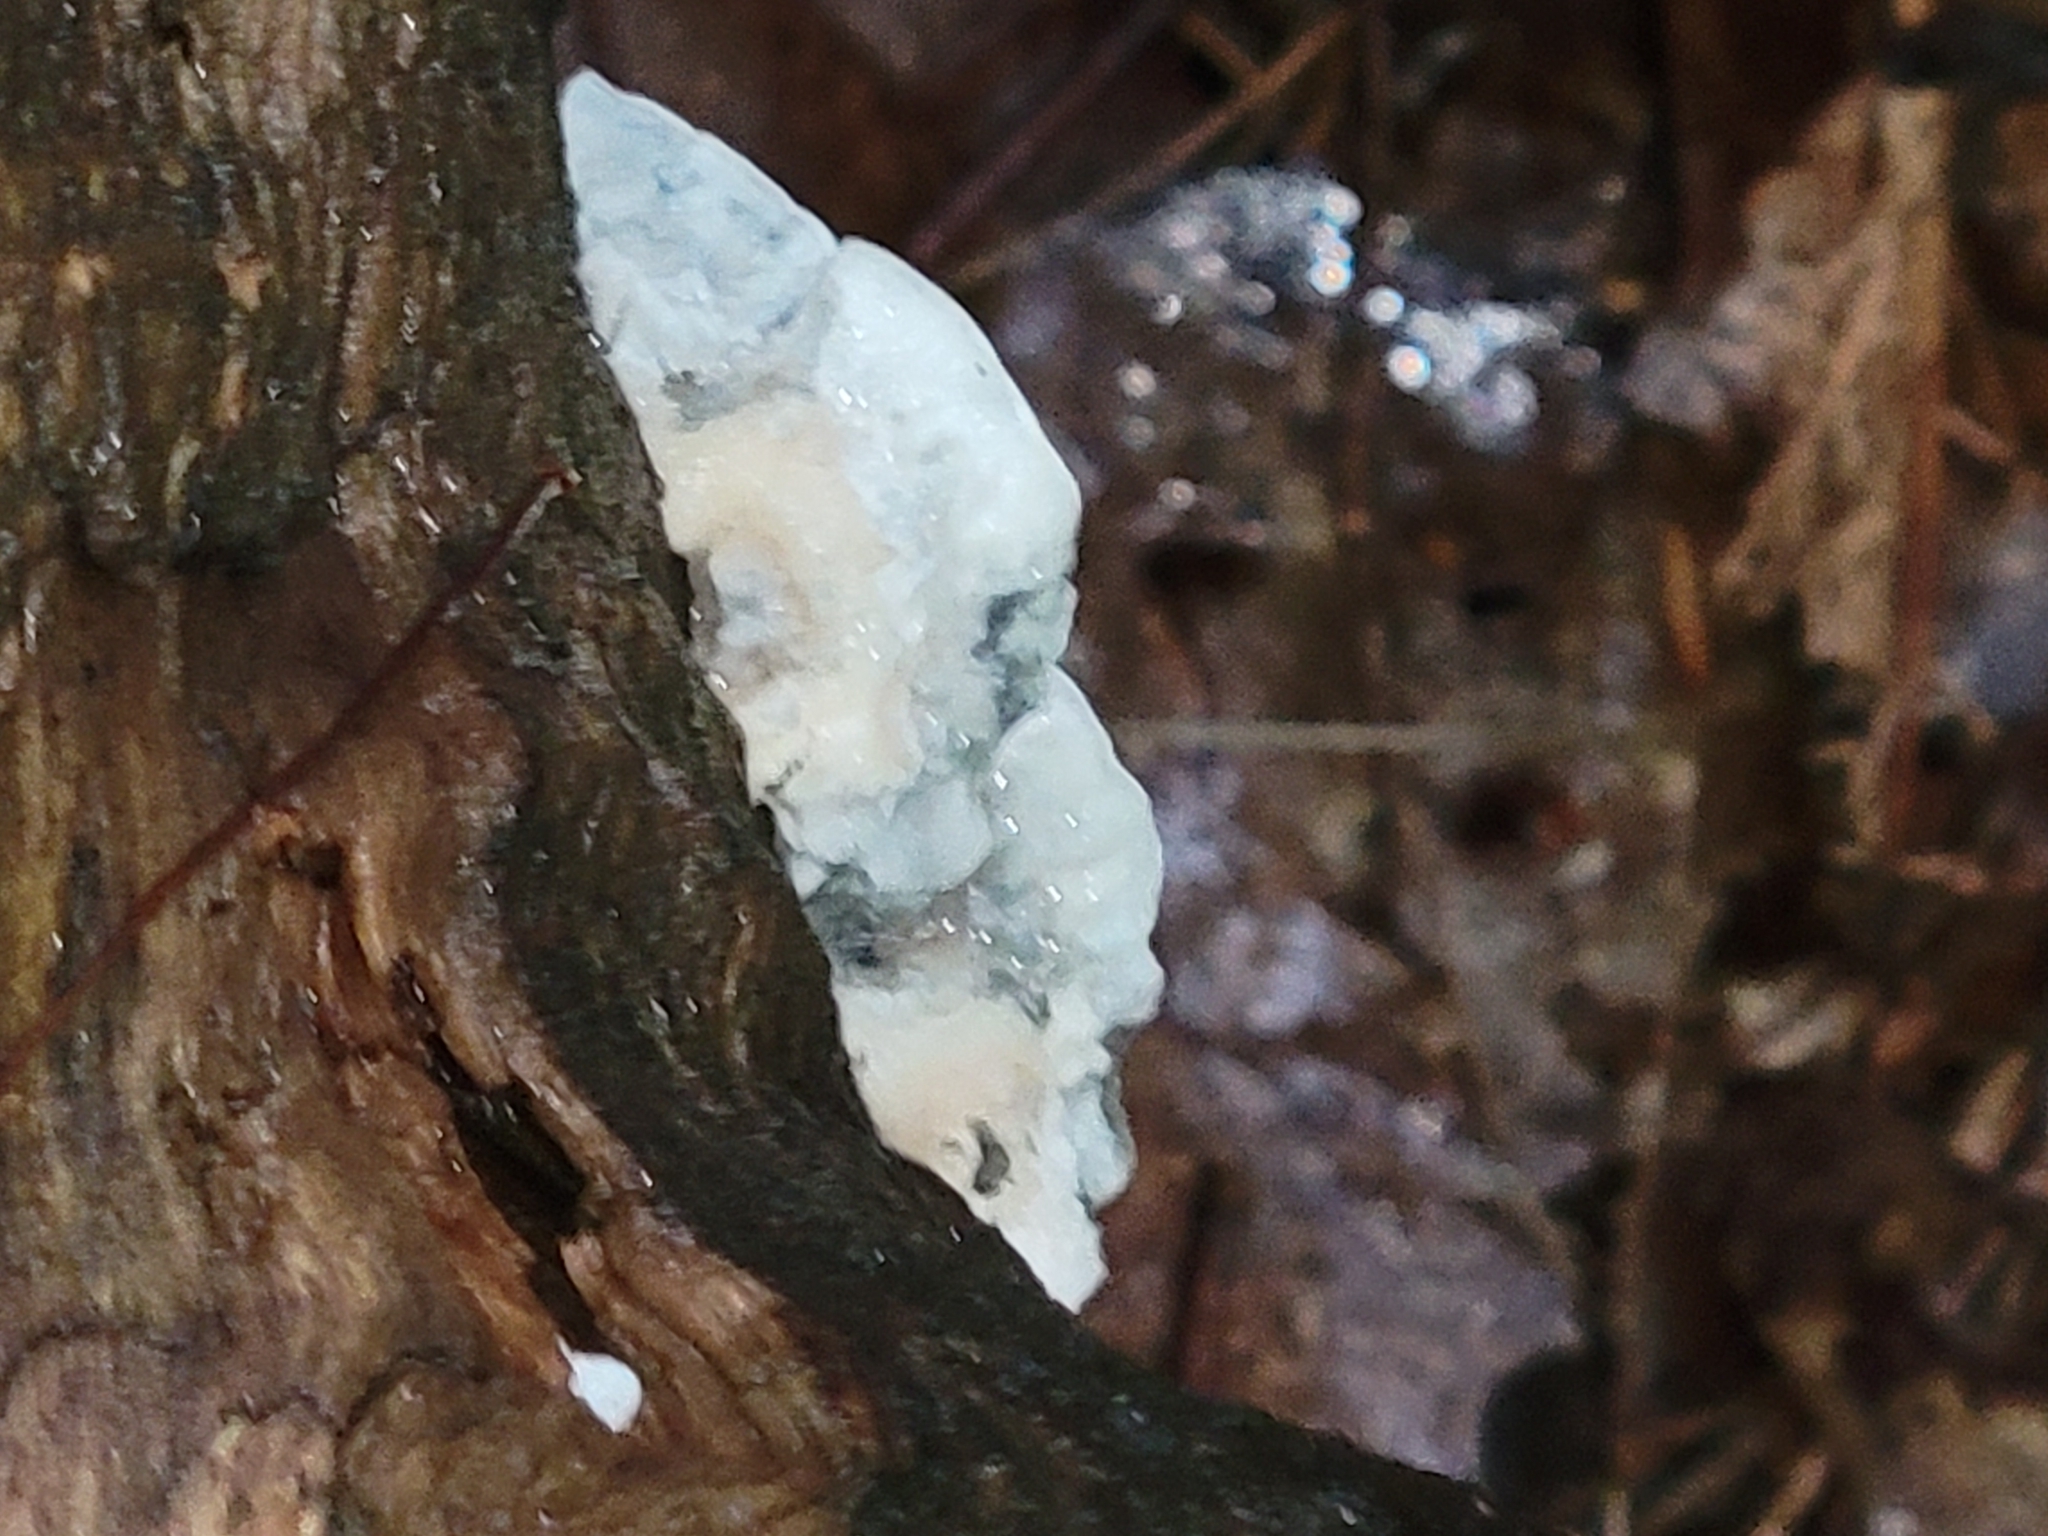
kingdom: Fungi
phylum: Basidiomycota
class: Agaricomycetes
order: Polyporales
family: Polyporaceae
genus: Cyanosporus
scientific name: Cyanosporus caesius
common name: Blue cheese polypore
